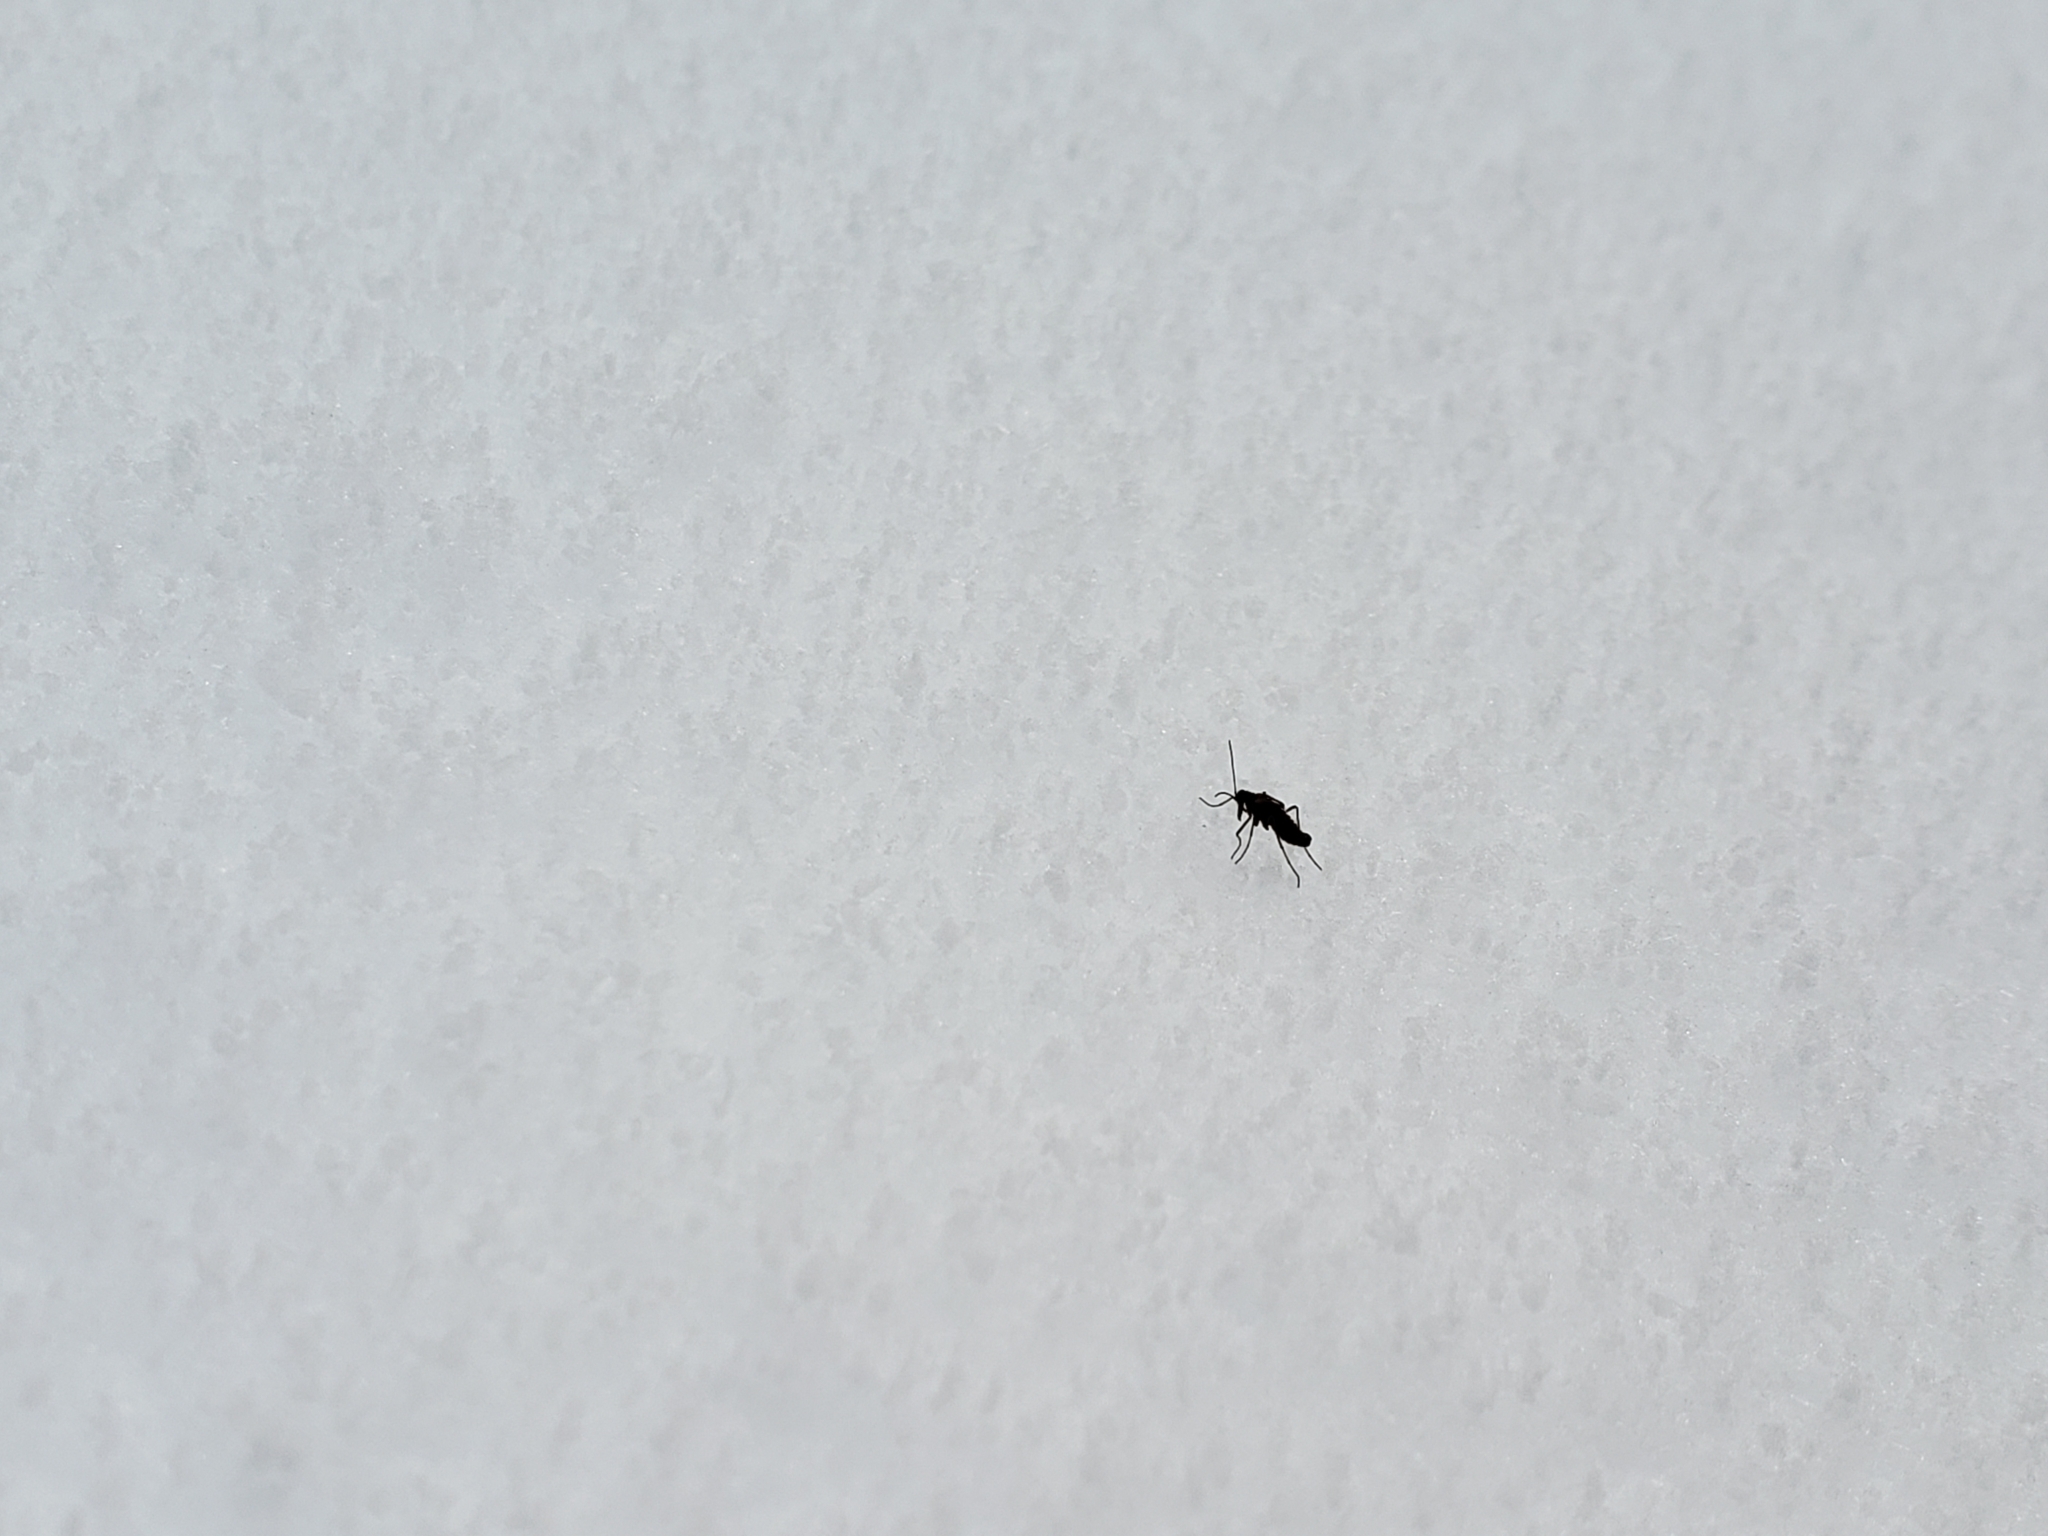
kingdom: Animalia
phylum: Arthropoda
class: Insecta
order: Mecoptera
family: Boreidae
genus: Boreus
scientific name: Boreus brumalis
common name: Mid-winter boreus
